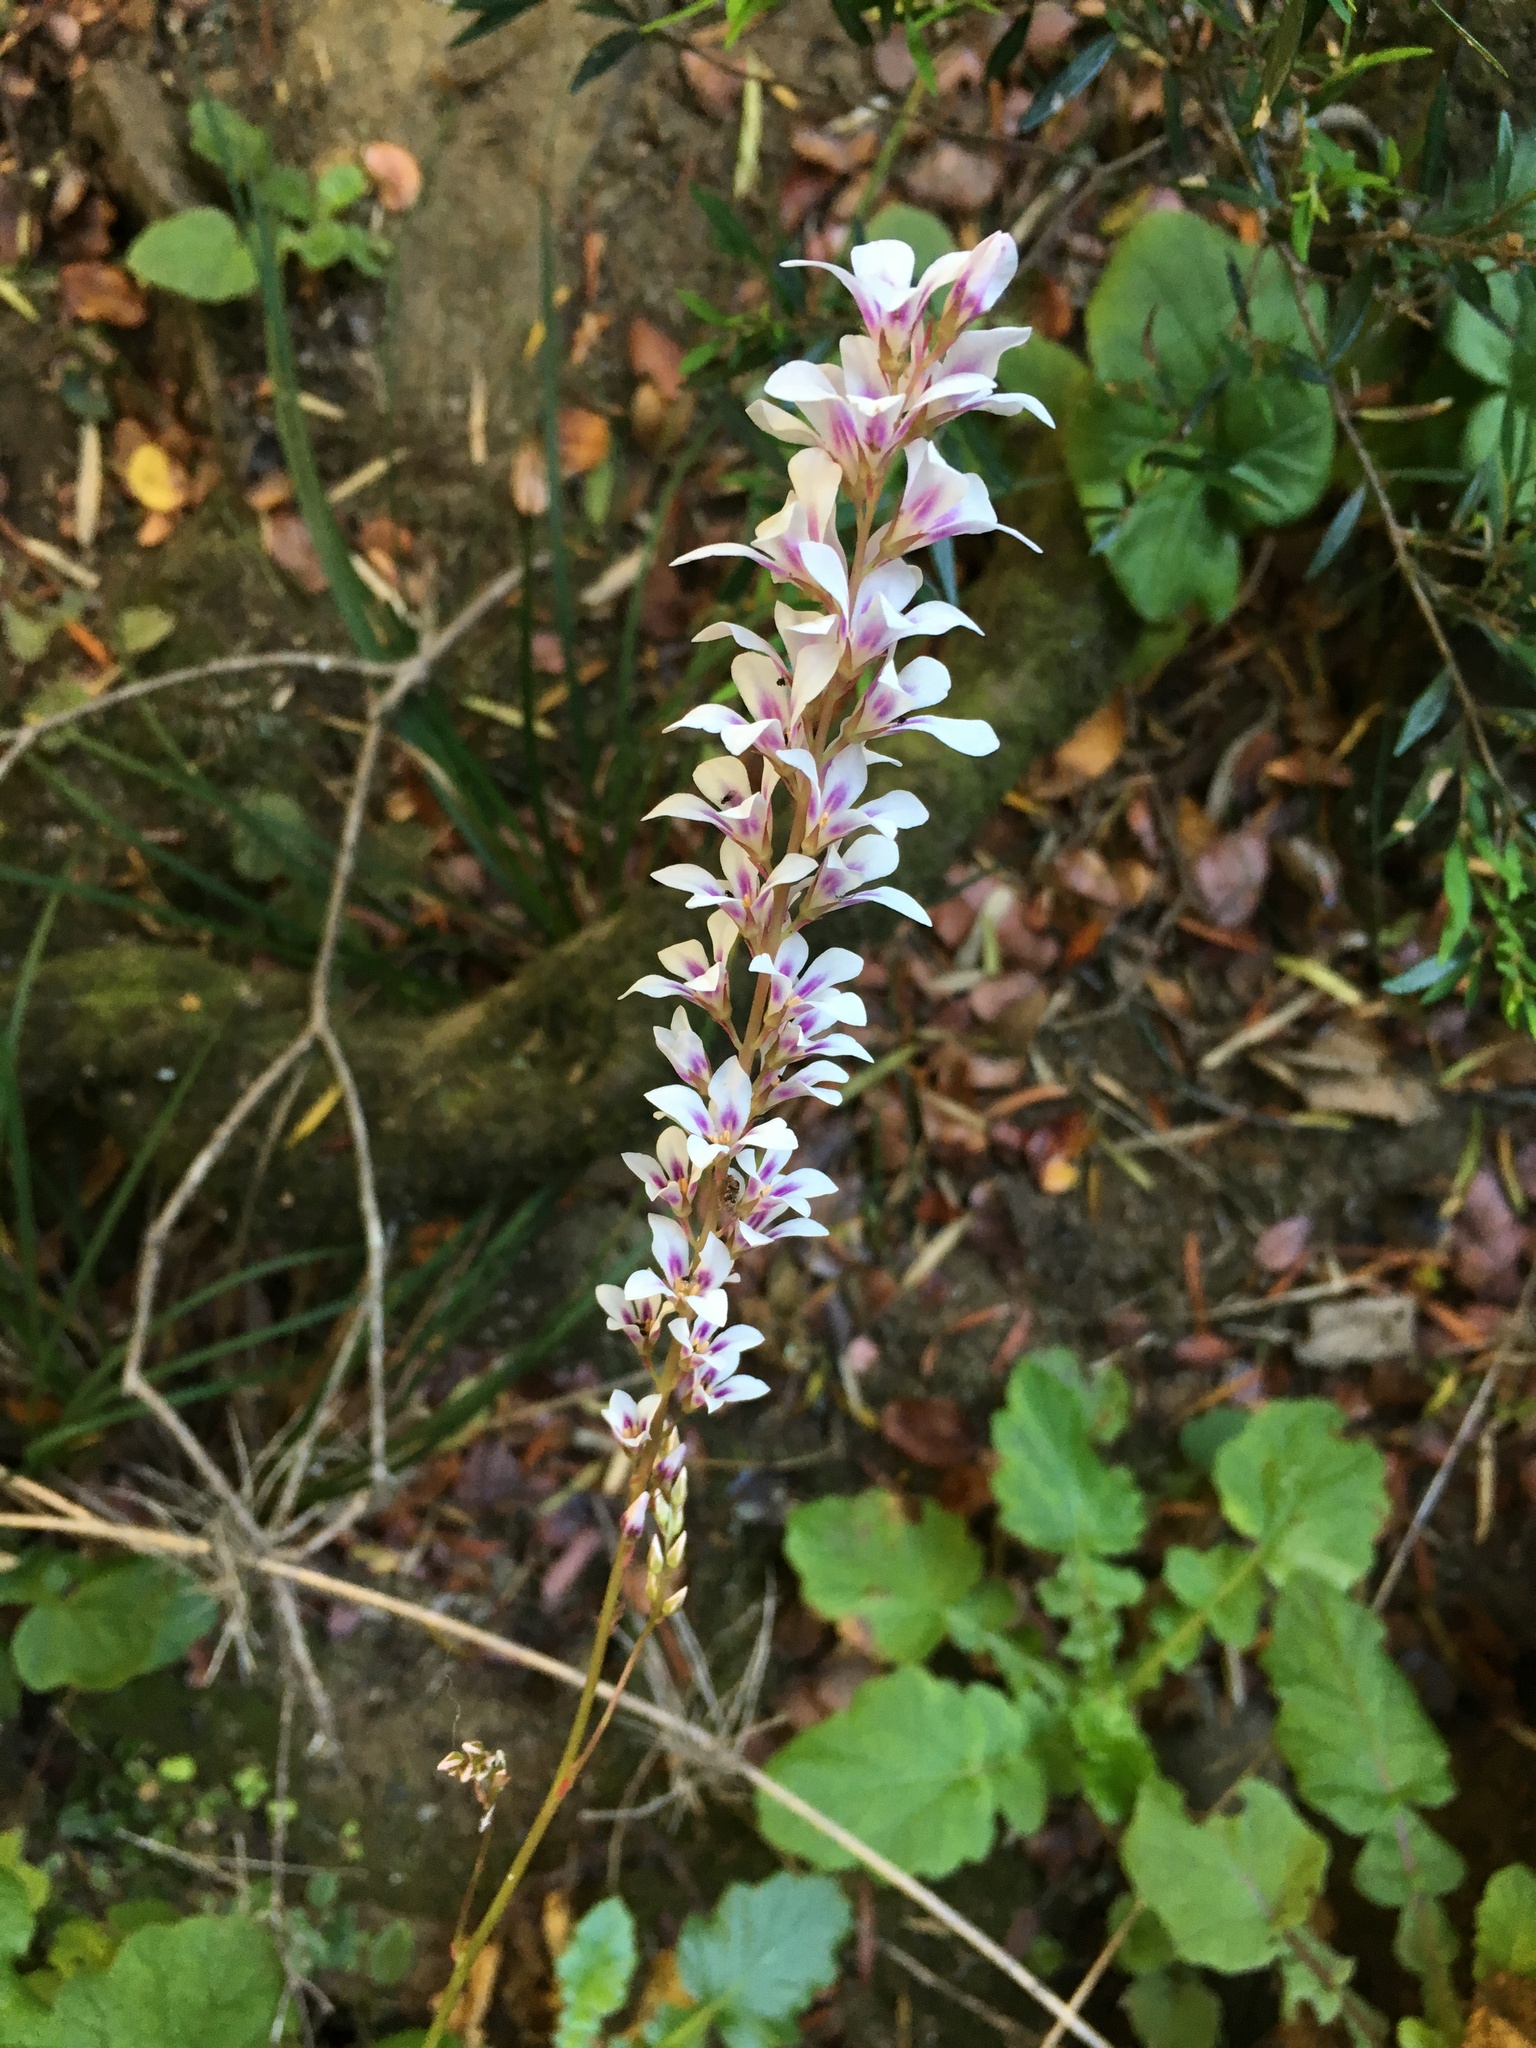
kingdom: Plantae
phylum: Tracheophyta
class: Magnoliopsida
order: Geraniales
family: Francoaceae
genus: Francoa
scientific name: Francoa appendiculata
